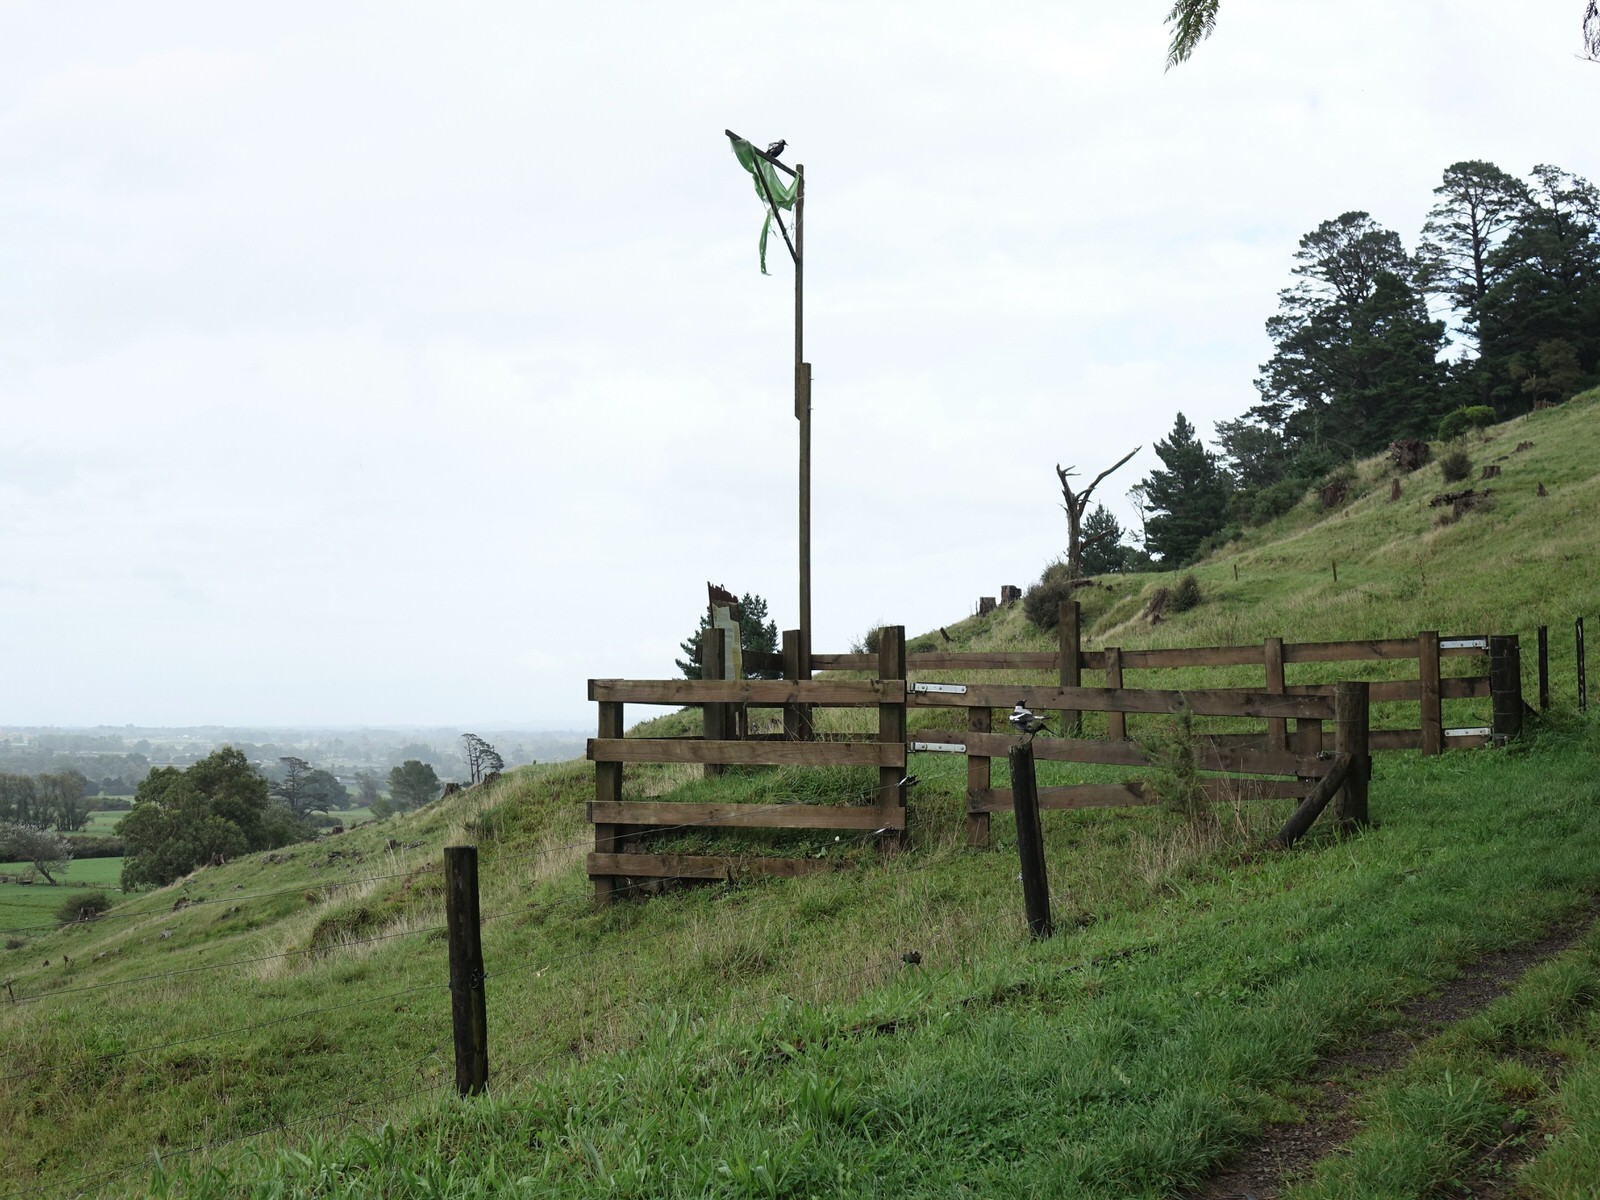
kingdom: Animalia
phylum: Chordata
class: Aves
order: Passeriformes
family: Cracticidae
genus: Gymnorhina
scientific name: Gymnorhina tibicen
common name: Australian magpie
